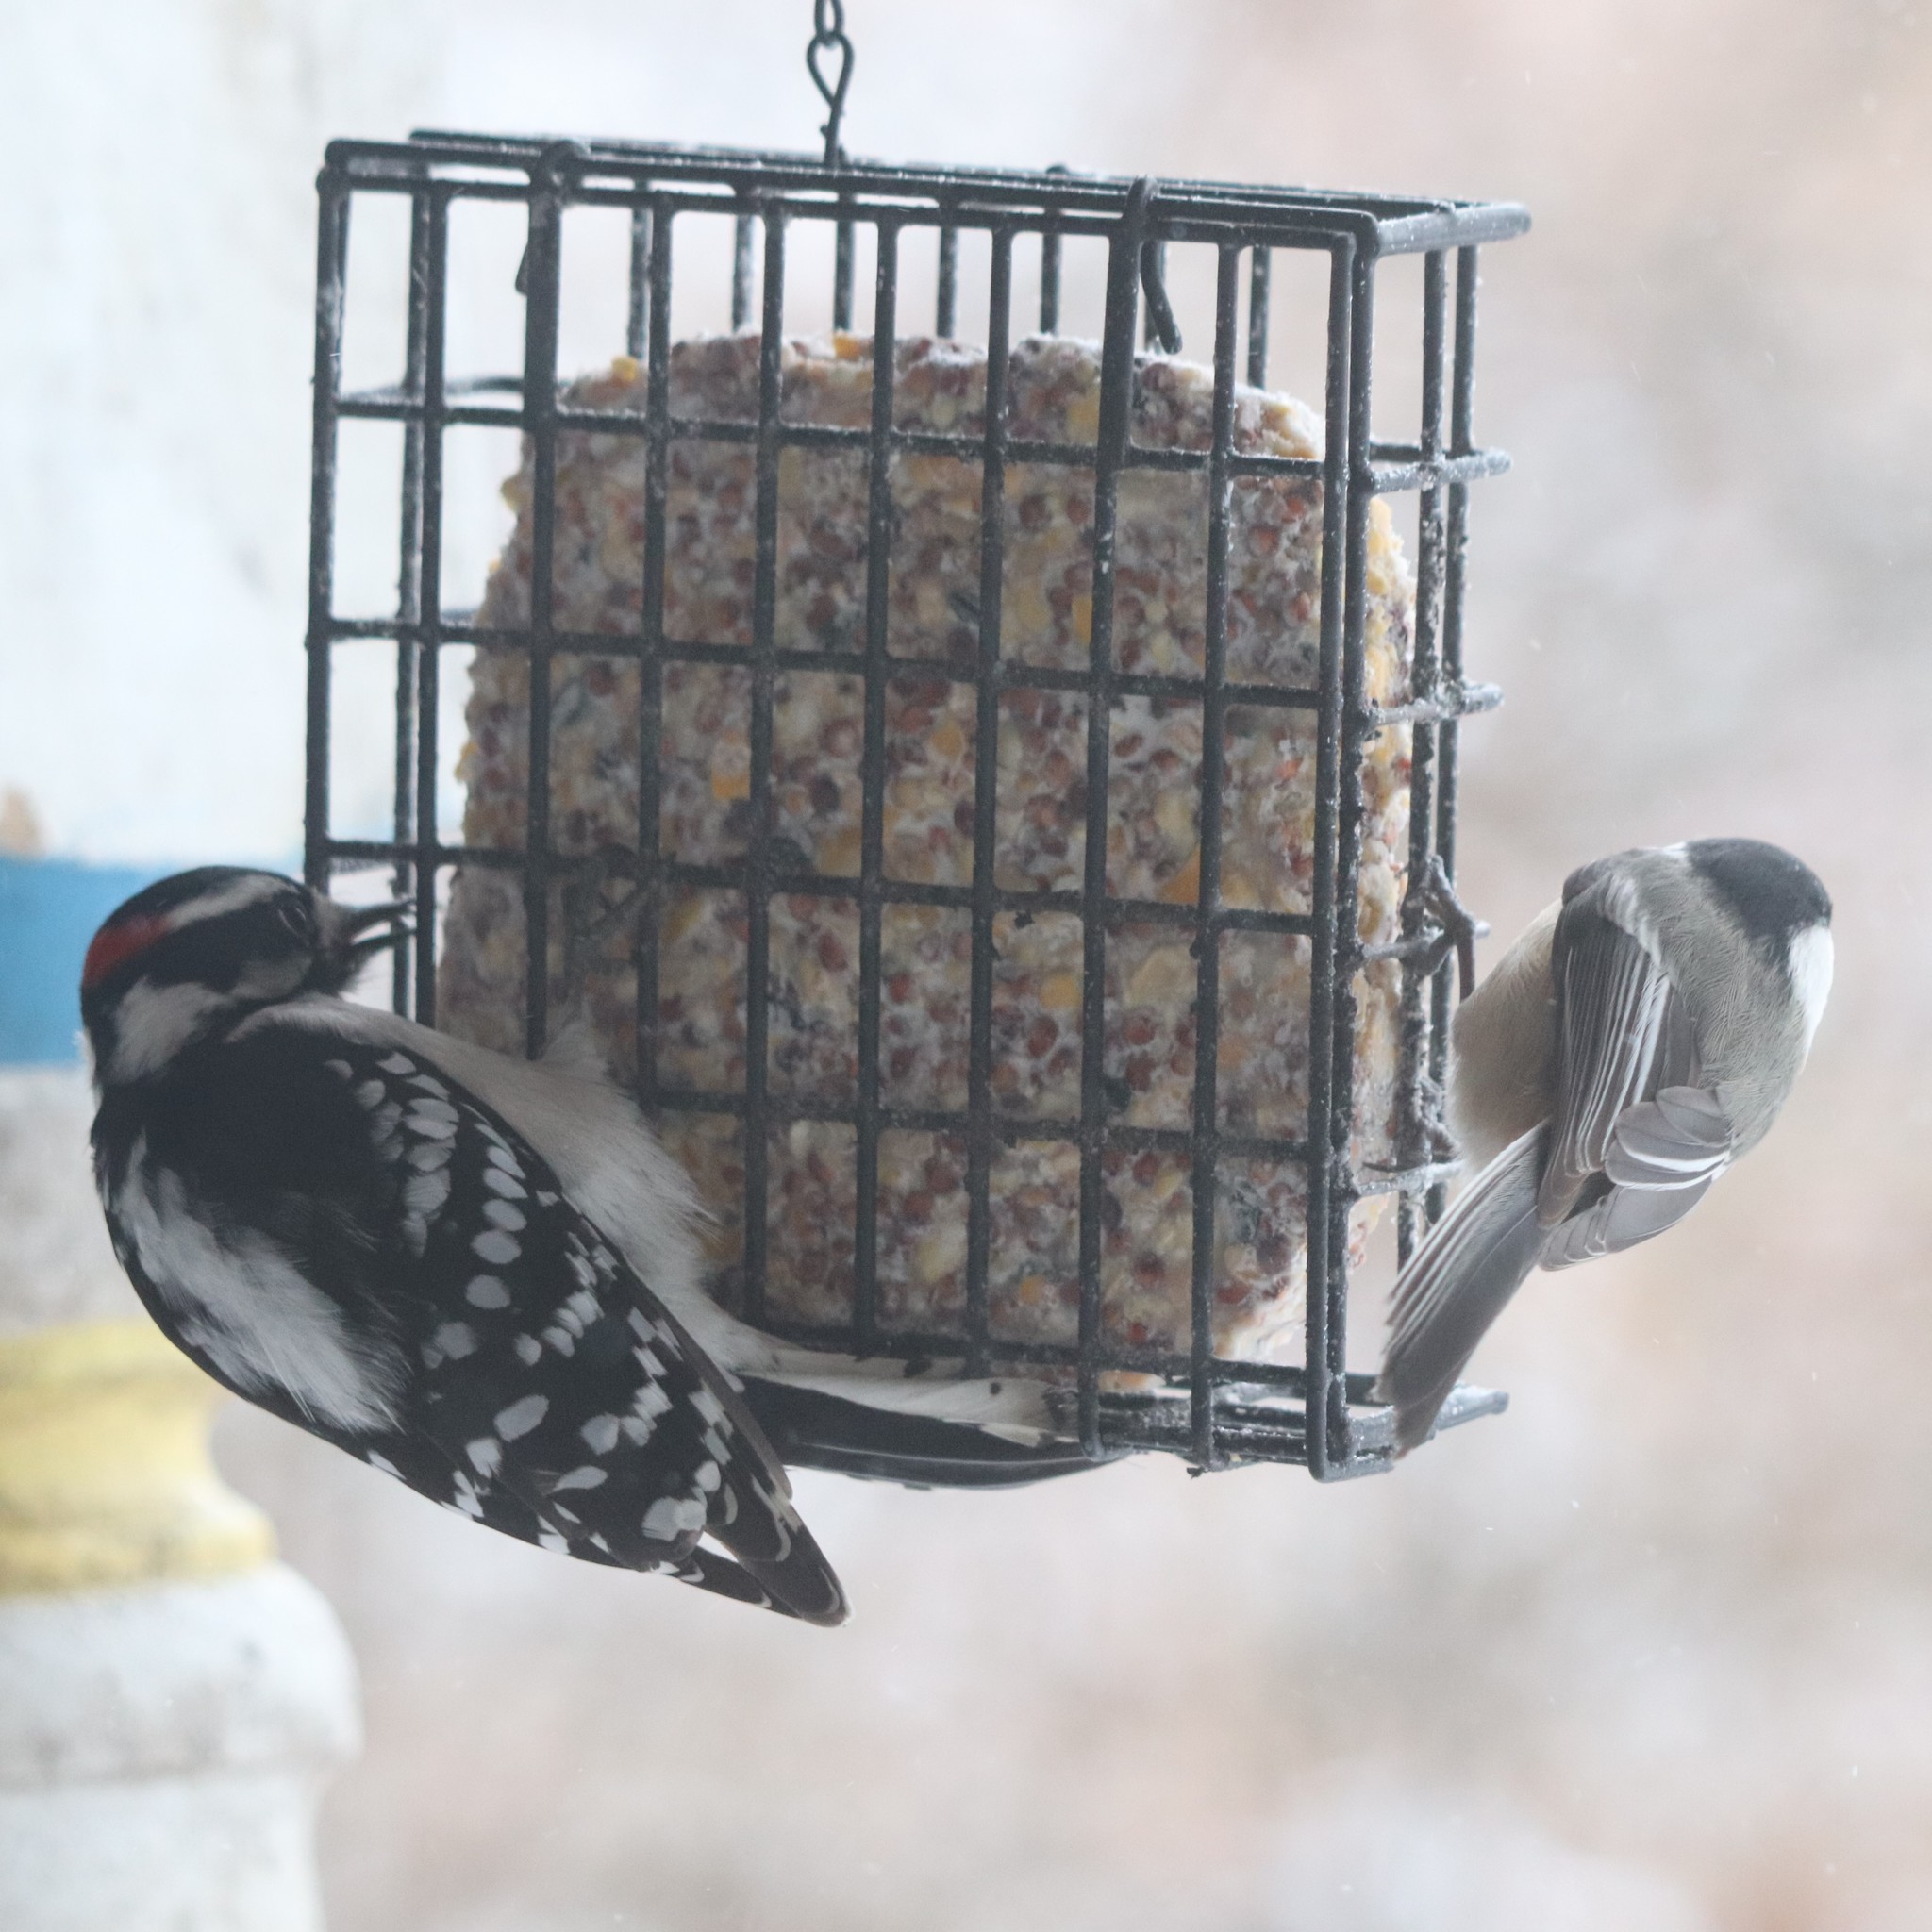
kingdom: Animalia
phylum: Chordata
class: Aves
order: Piciformes
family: Picidae
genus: Dryobates
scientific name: Dryobates pubescens
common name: Downy woodpecker
